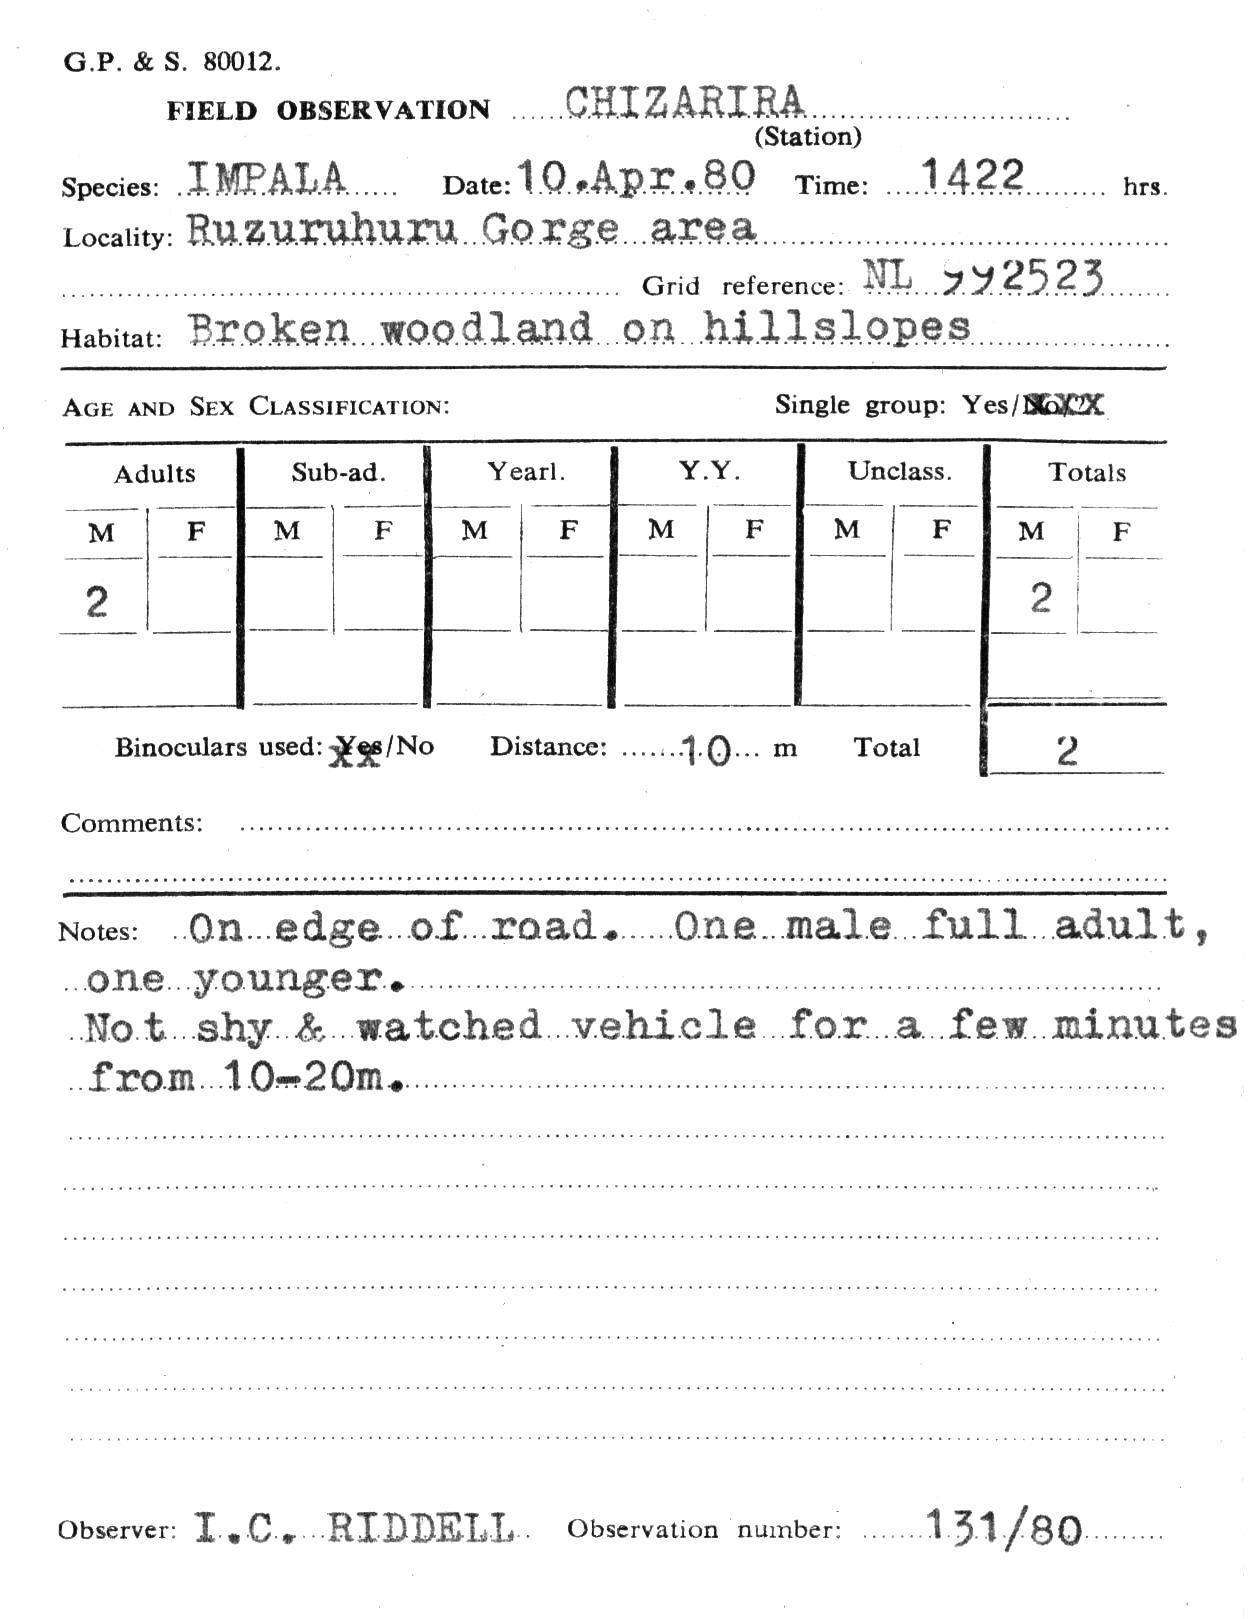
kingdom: Animalia
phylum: Chordata
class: Mammalia
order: Artiodactyla
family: Bovidae
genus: Aepyceros
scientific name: Aepyceros melampus
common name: Impala
